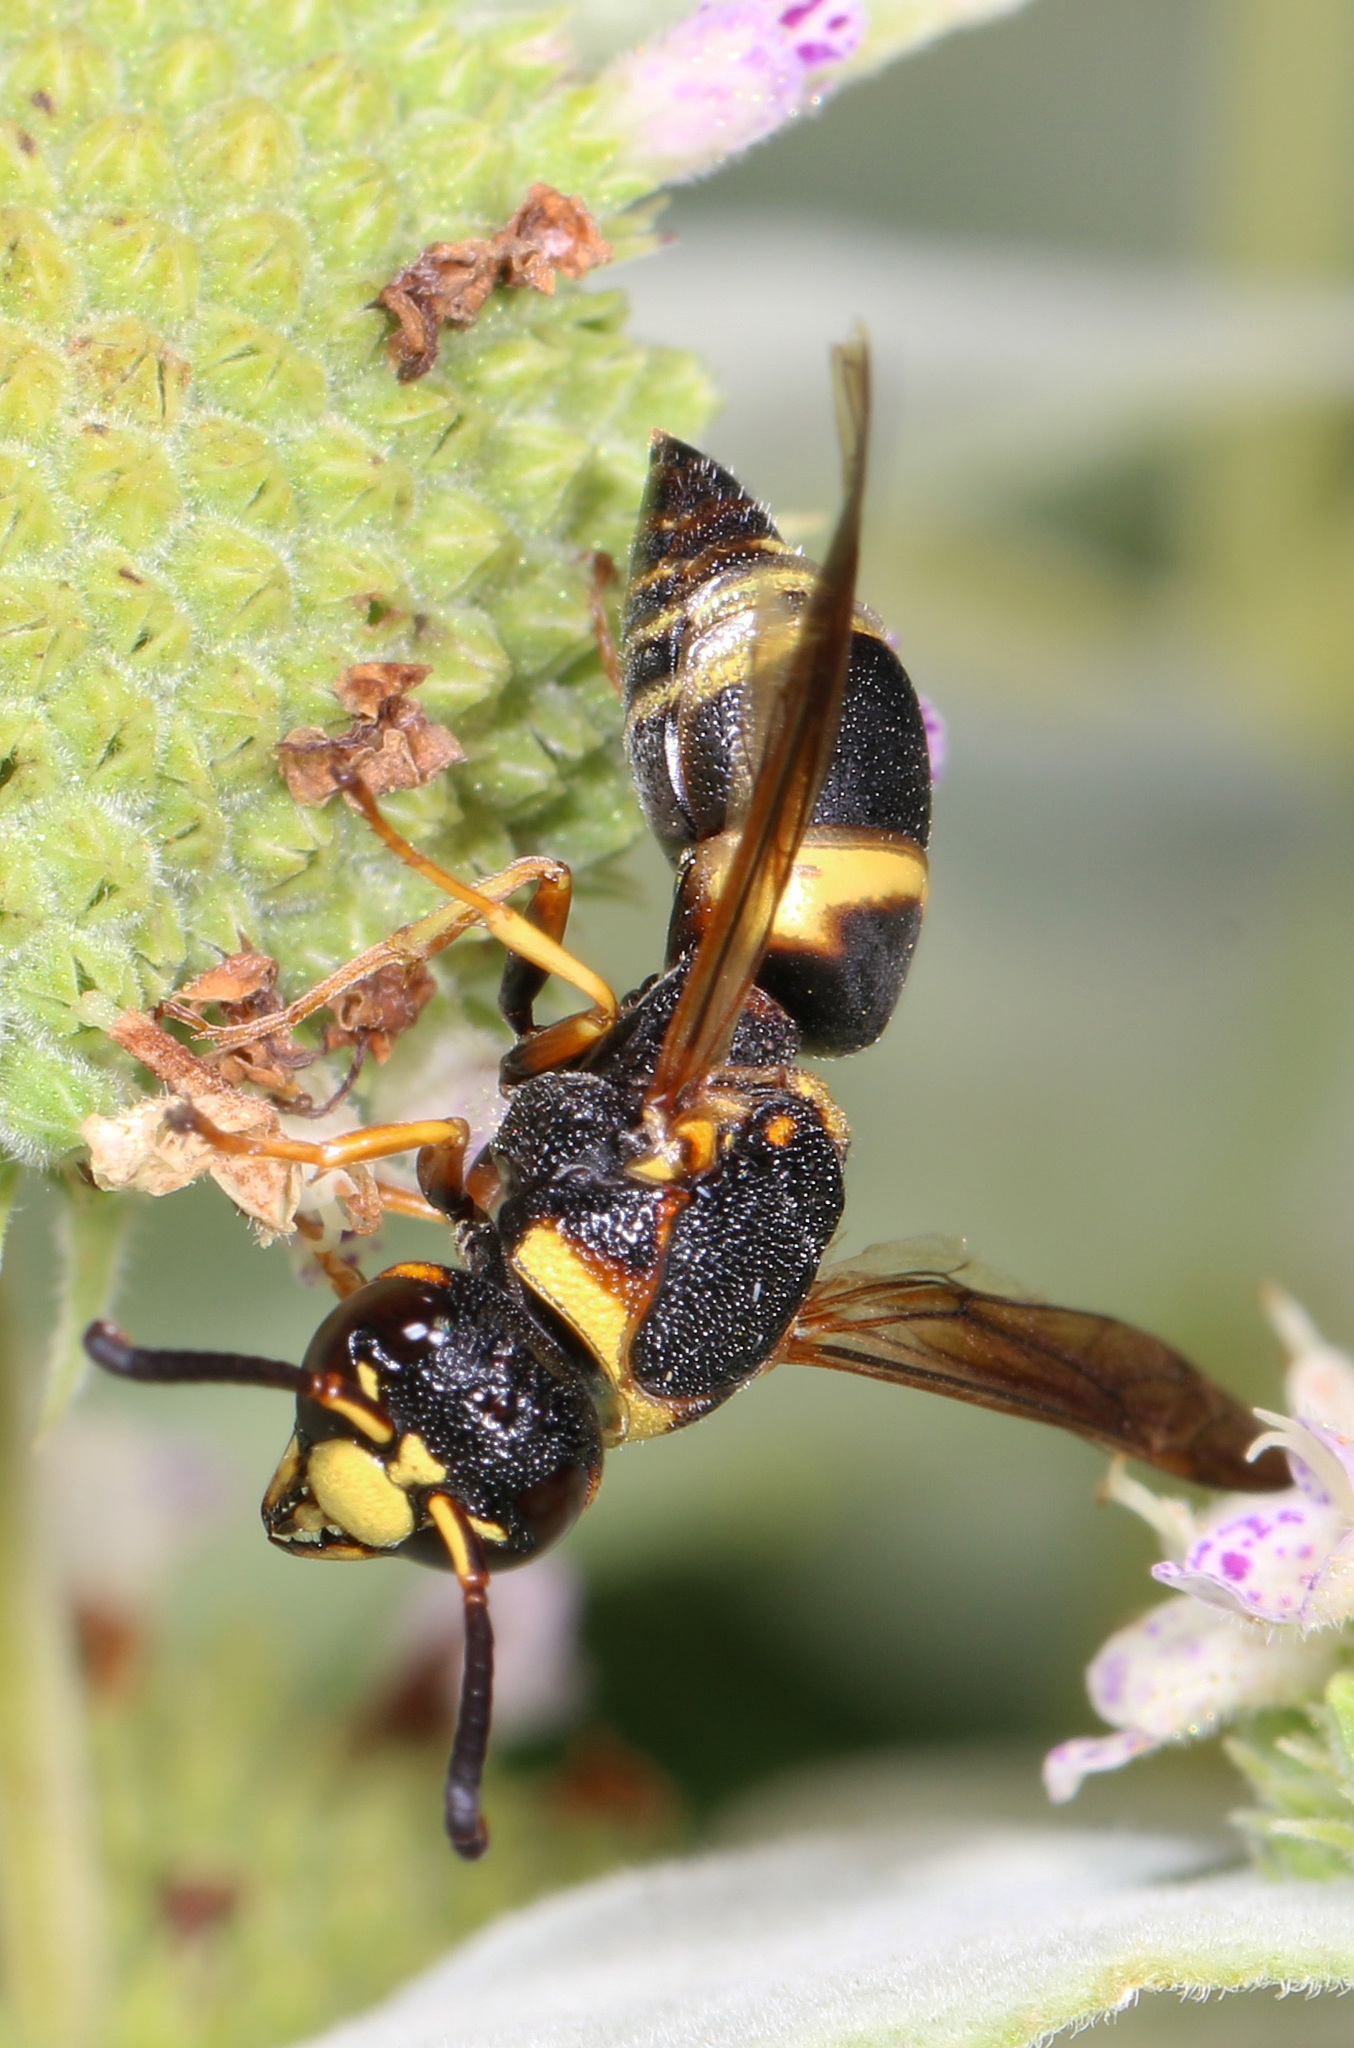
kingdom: Animalia
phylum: Arthropoda
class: Insecta
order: Hymenoptera
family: Eumenidae
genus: Euodynerus
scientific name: Euodynerus hidalgo
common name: Wasp
